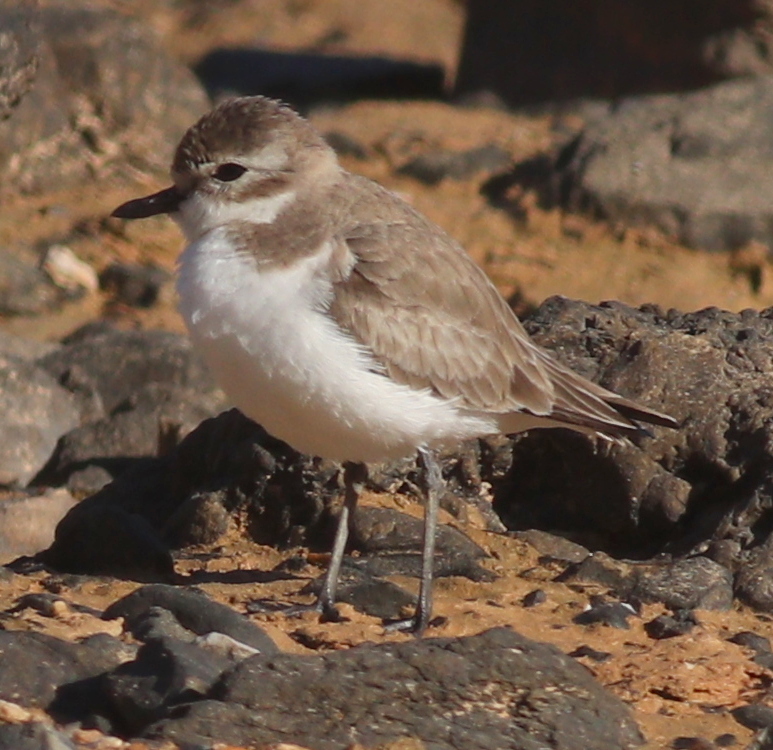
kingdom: Animalia
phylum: Chordata
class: Aves
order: Charadriiformes
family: Charadriidae
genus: Anarhynchus
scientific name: Anarhynchus
